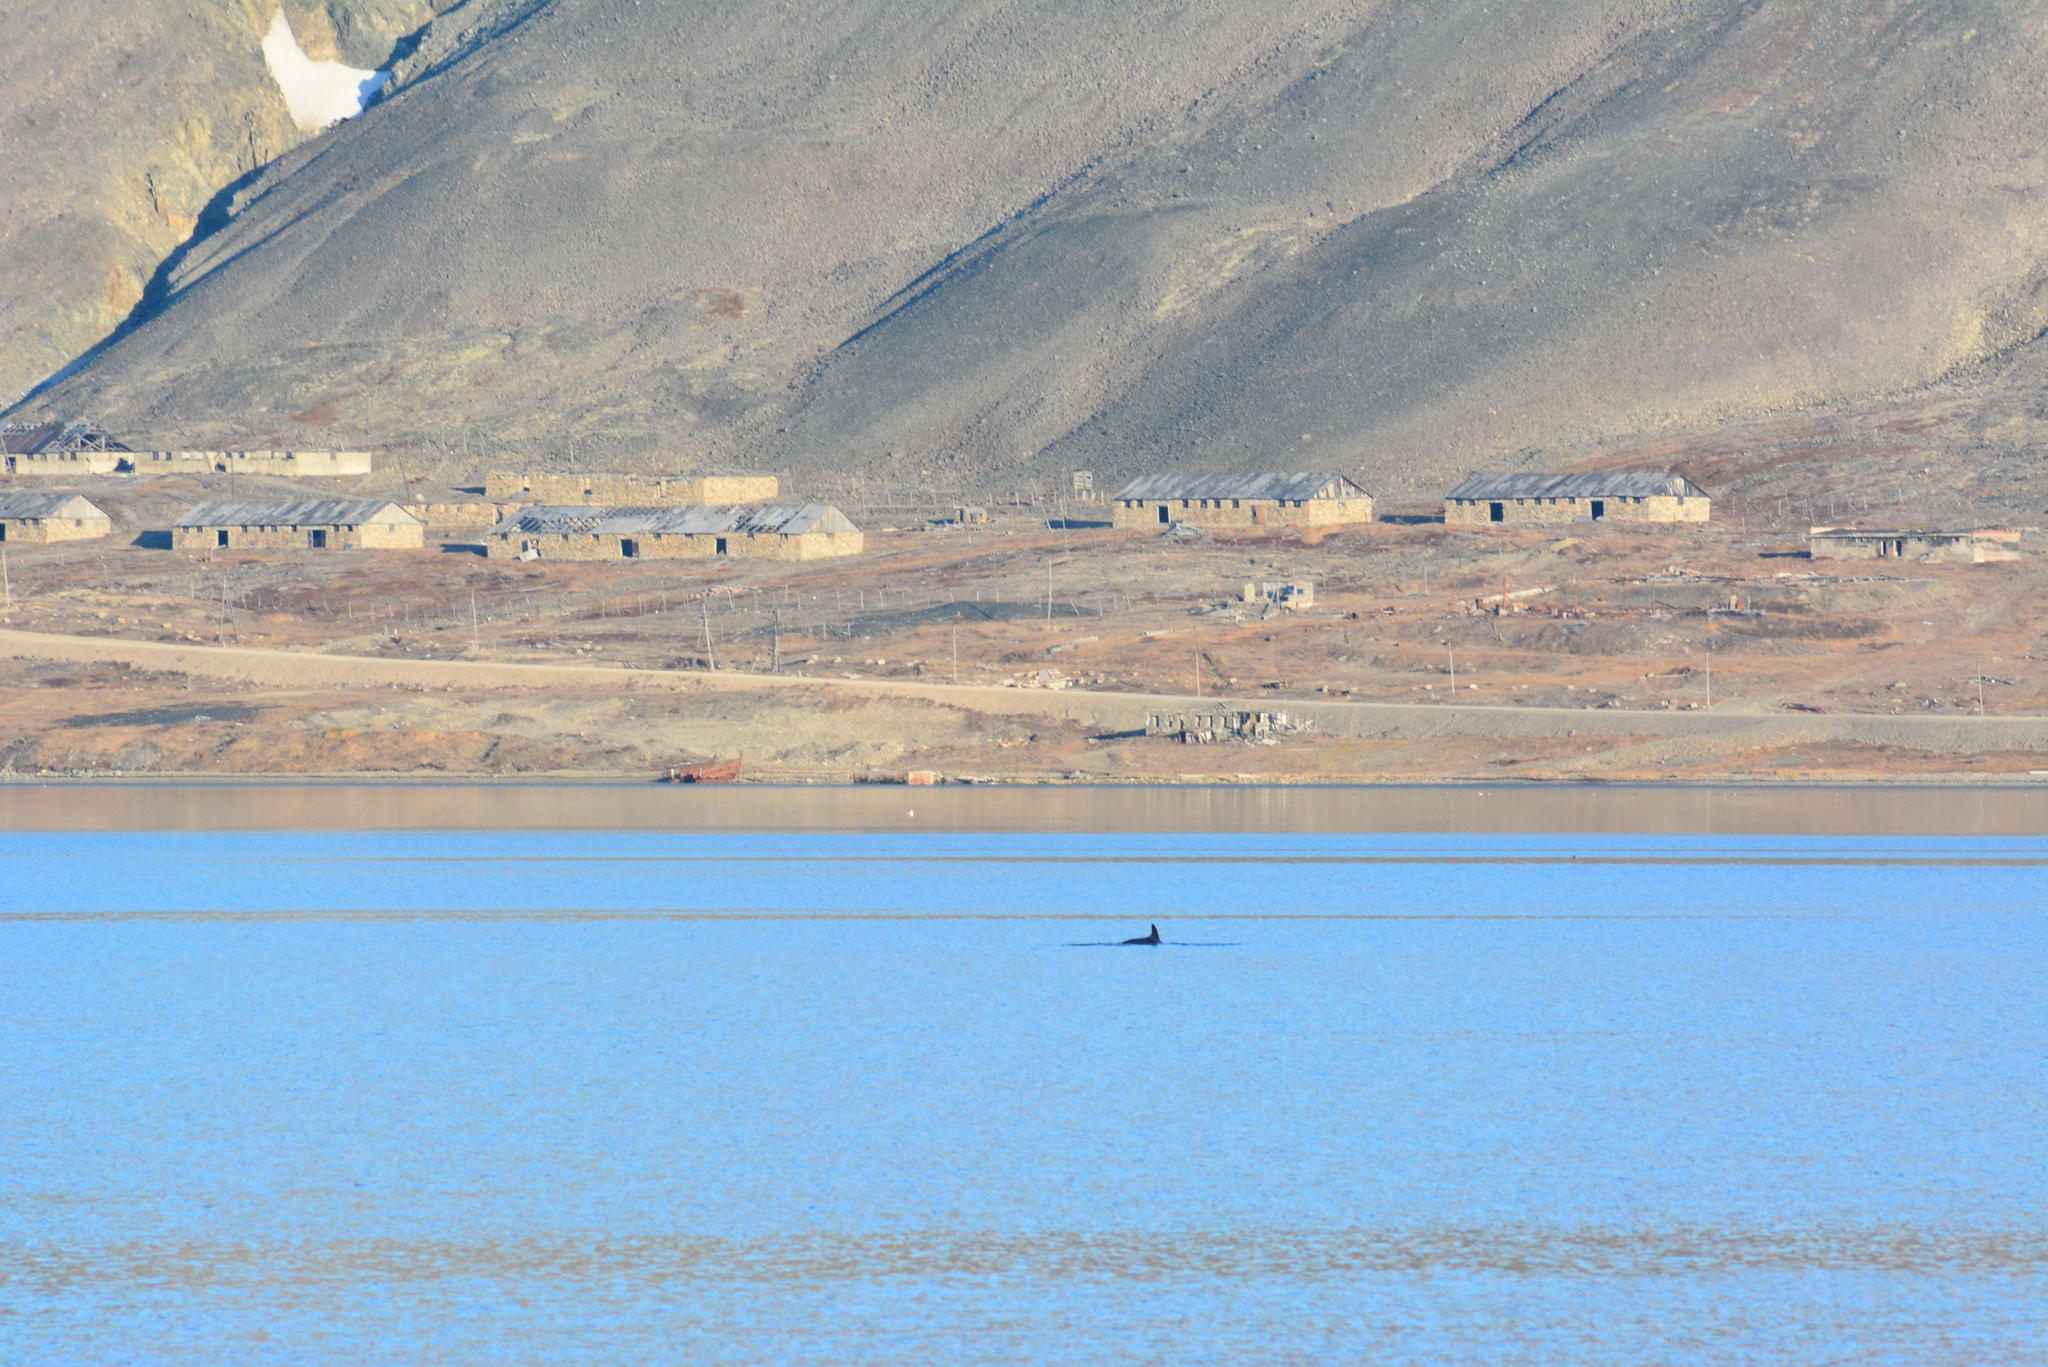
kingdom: Animalia
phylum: Chordata
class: Mammalia
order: Cetacea
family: Balaenopteridae
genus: Balaenoptera
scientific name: Balaenoptera acutorostrata
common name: Common minke whale
